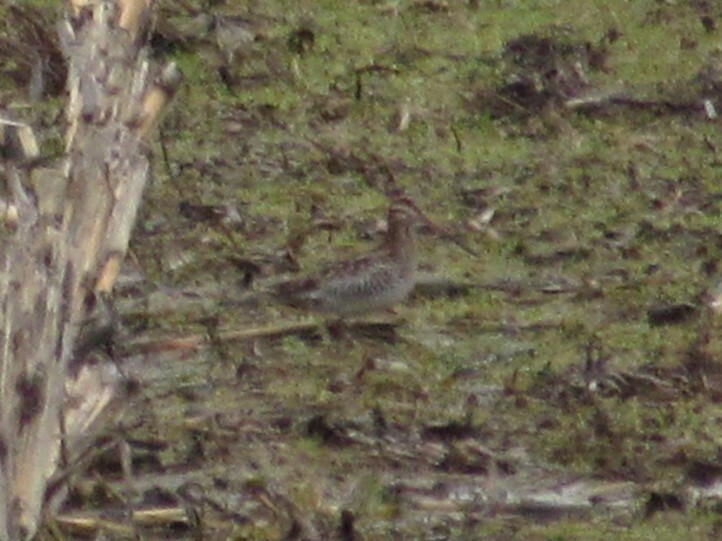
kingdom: Animalia
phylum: Chordata
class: Aves
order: Charadriiformes
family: Scolopacidae
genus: Gallinago
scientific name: Gallinago delicata
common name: Wilson's snipe
